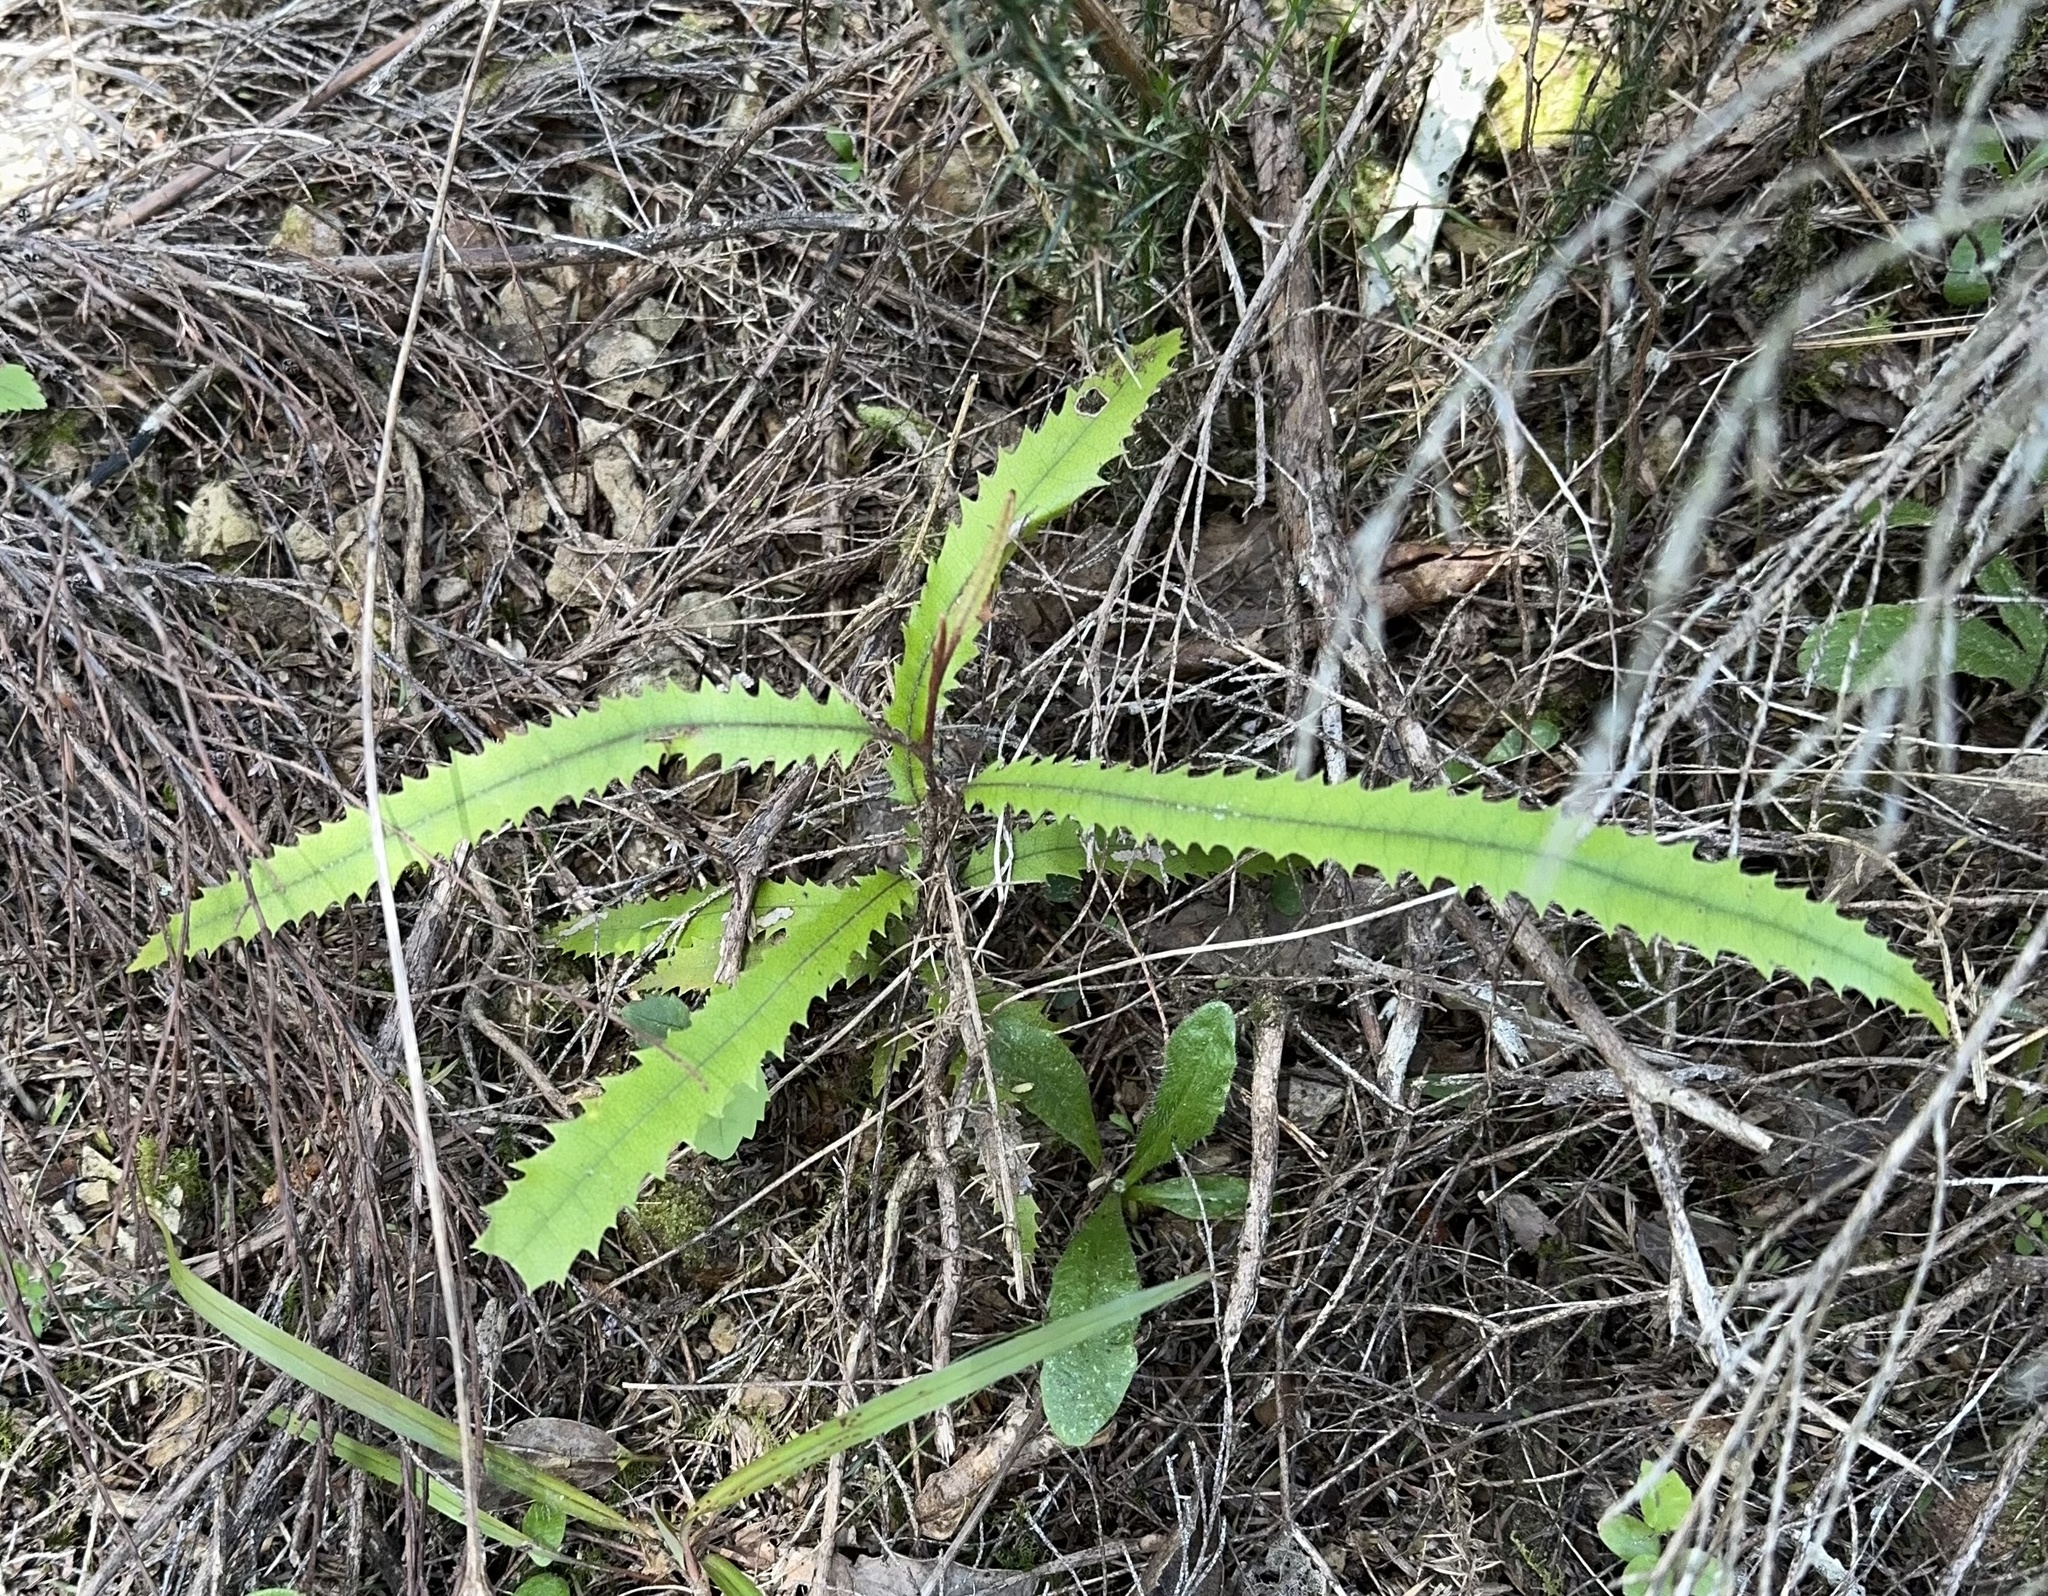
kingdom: Plantae
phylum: Tracheophyta
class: Magnoliopsida
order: Proteales
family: Proteaceae
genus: Knightia
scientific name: Knightia excelsa
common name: New zealand-honeysuckle
